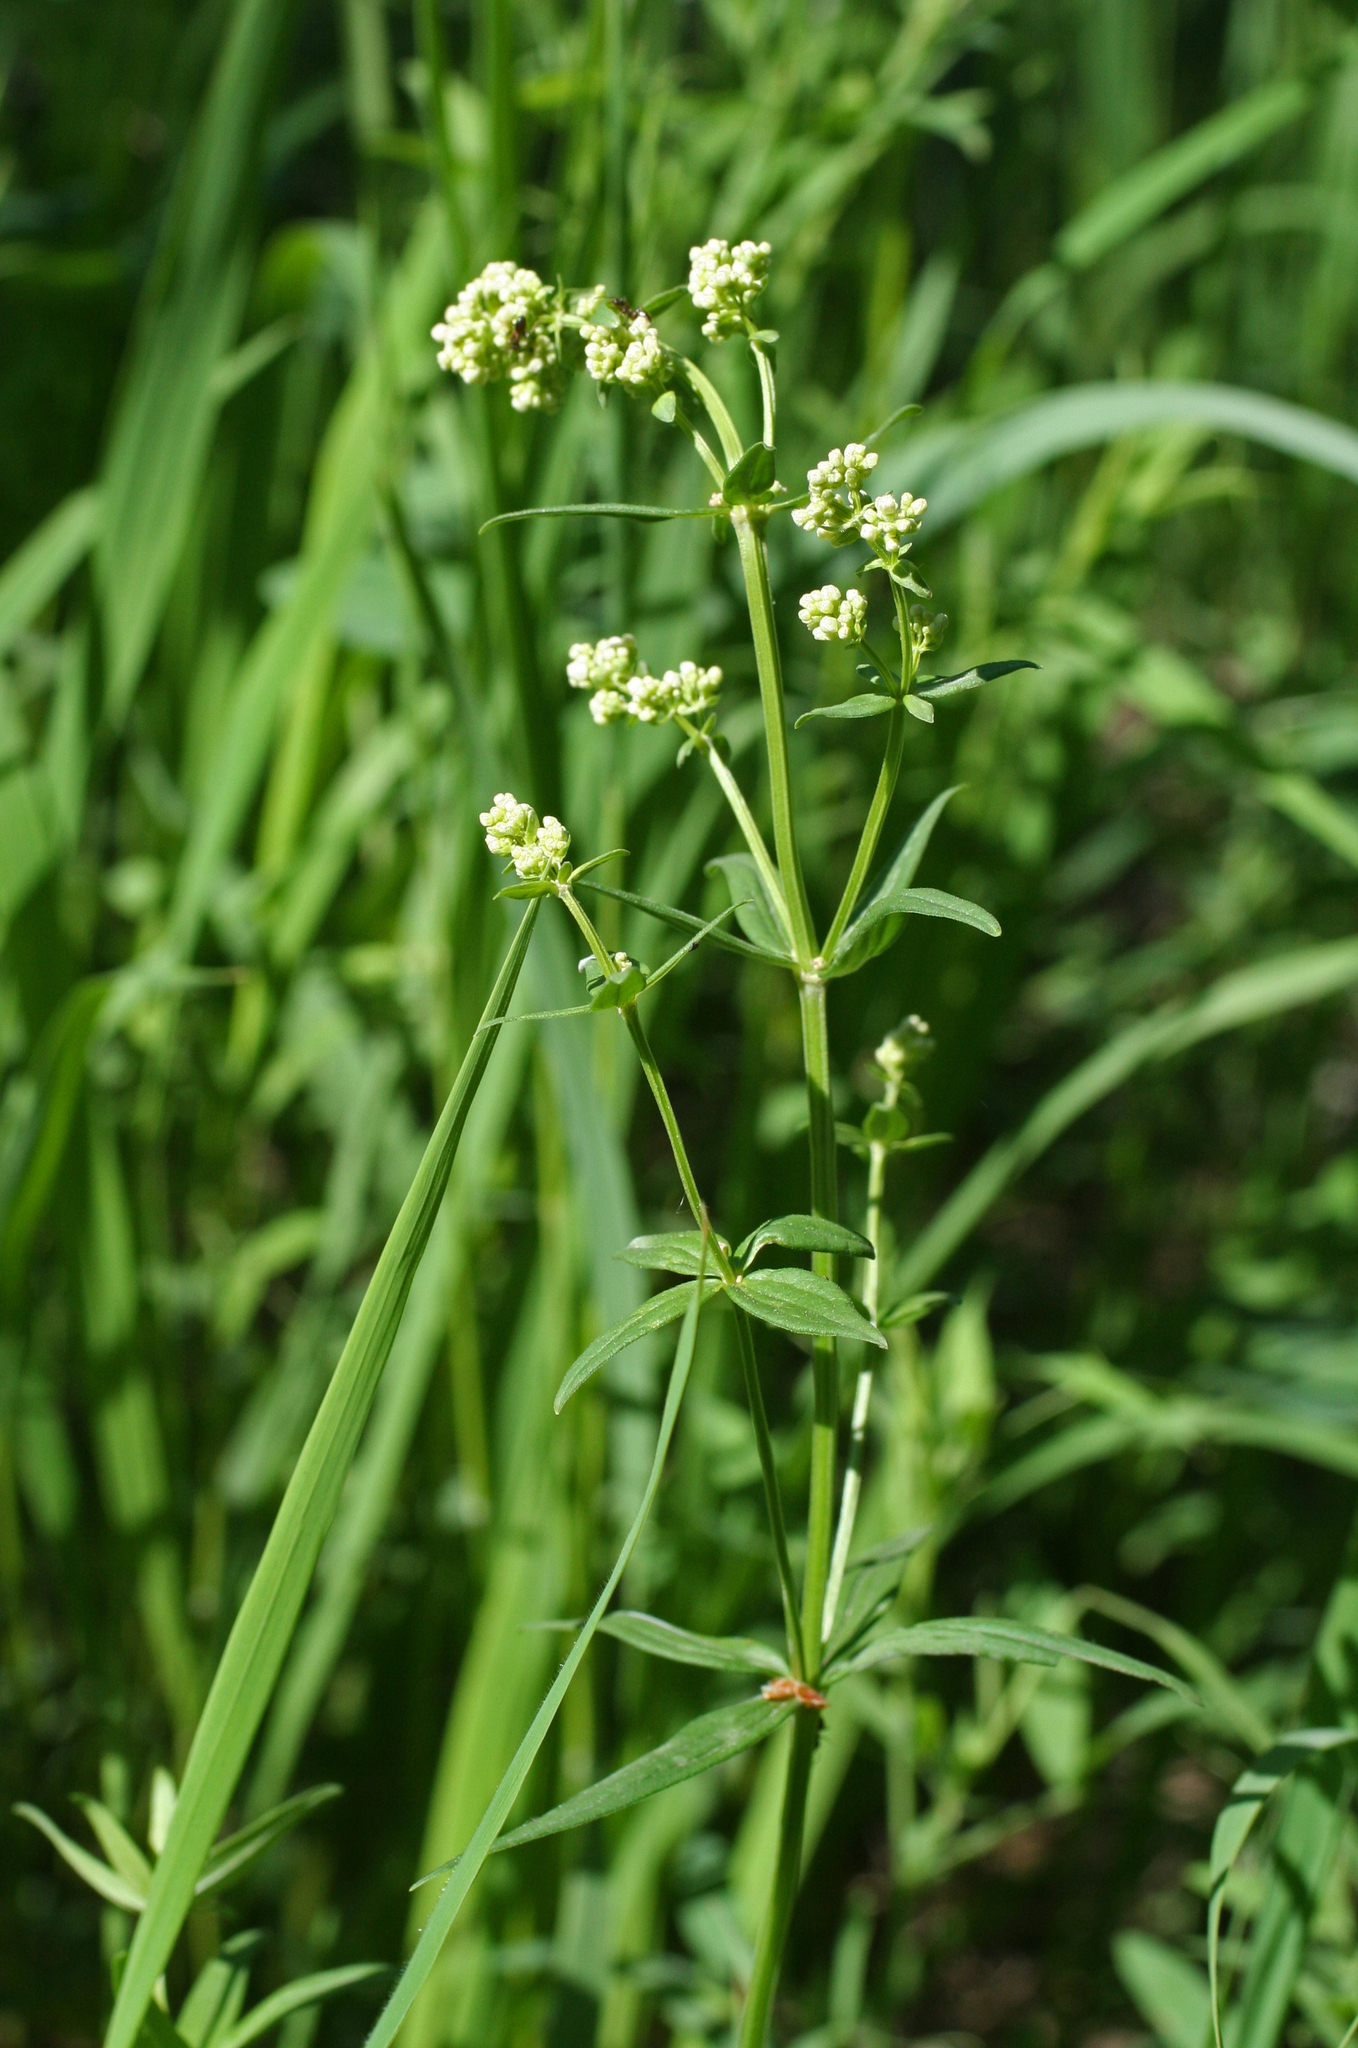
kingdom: Plantae
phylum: Tracheophyta
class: Magnoliopsida
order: Gentianales
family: Rubiaceae
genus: Galium
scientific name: Galium boreale
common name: Northern bedstraw
